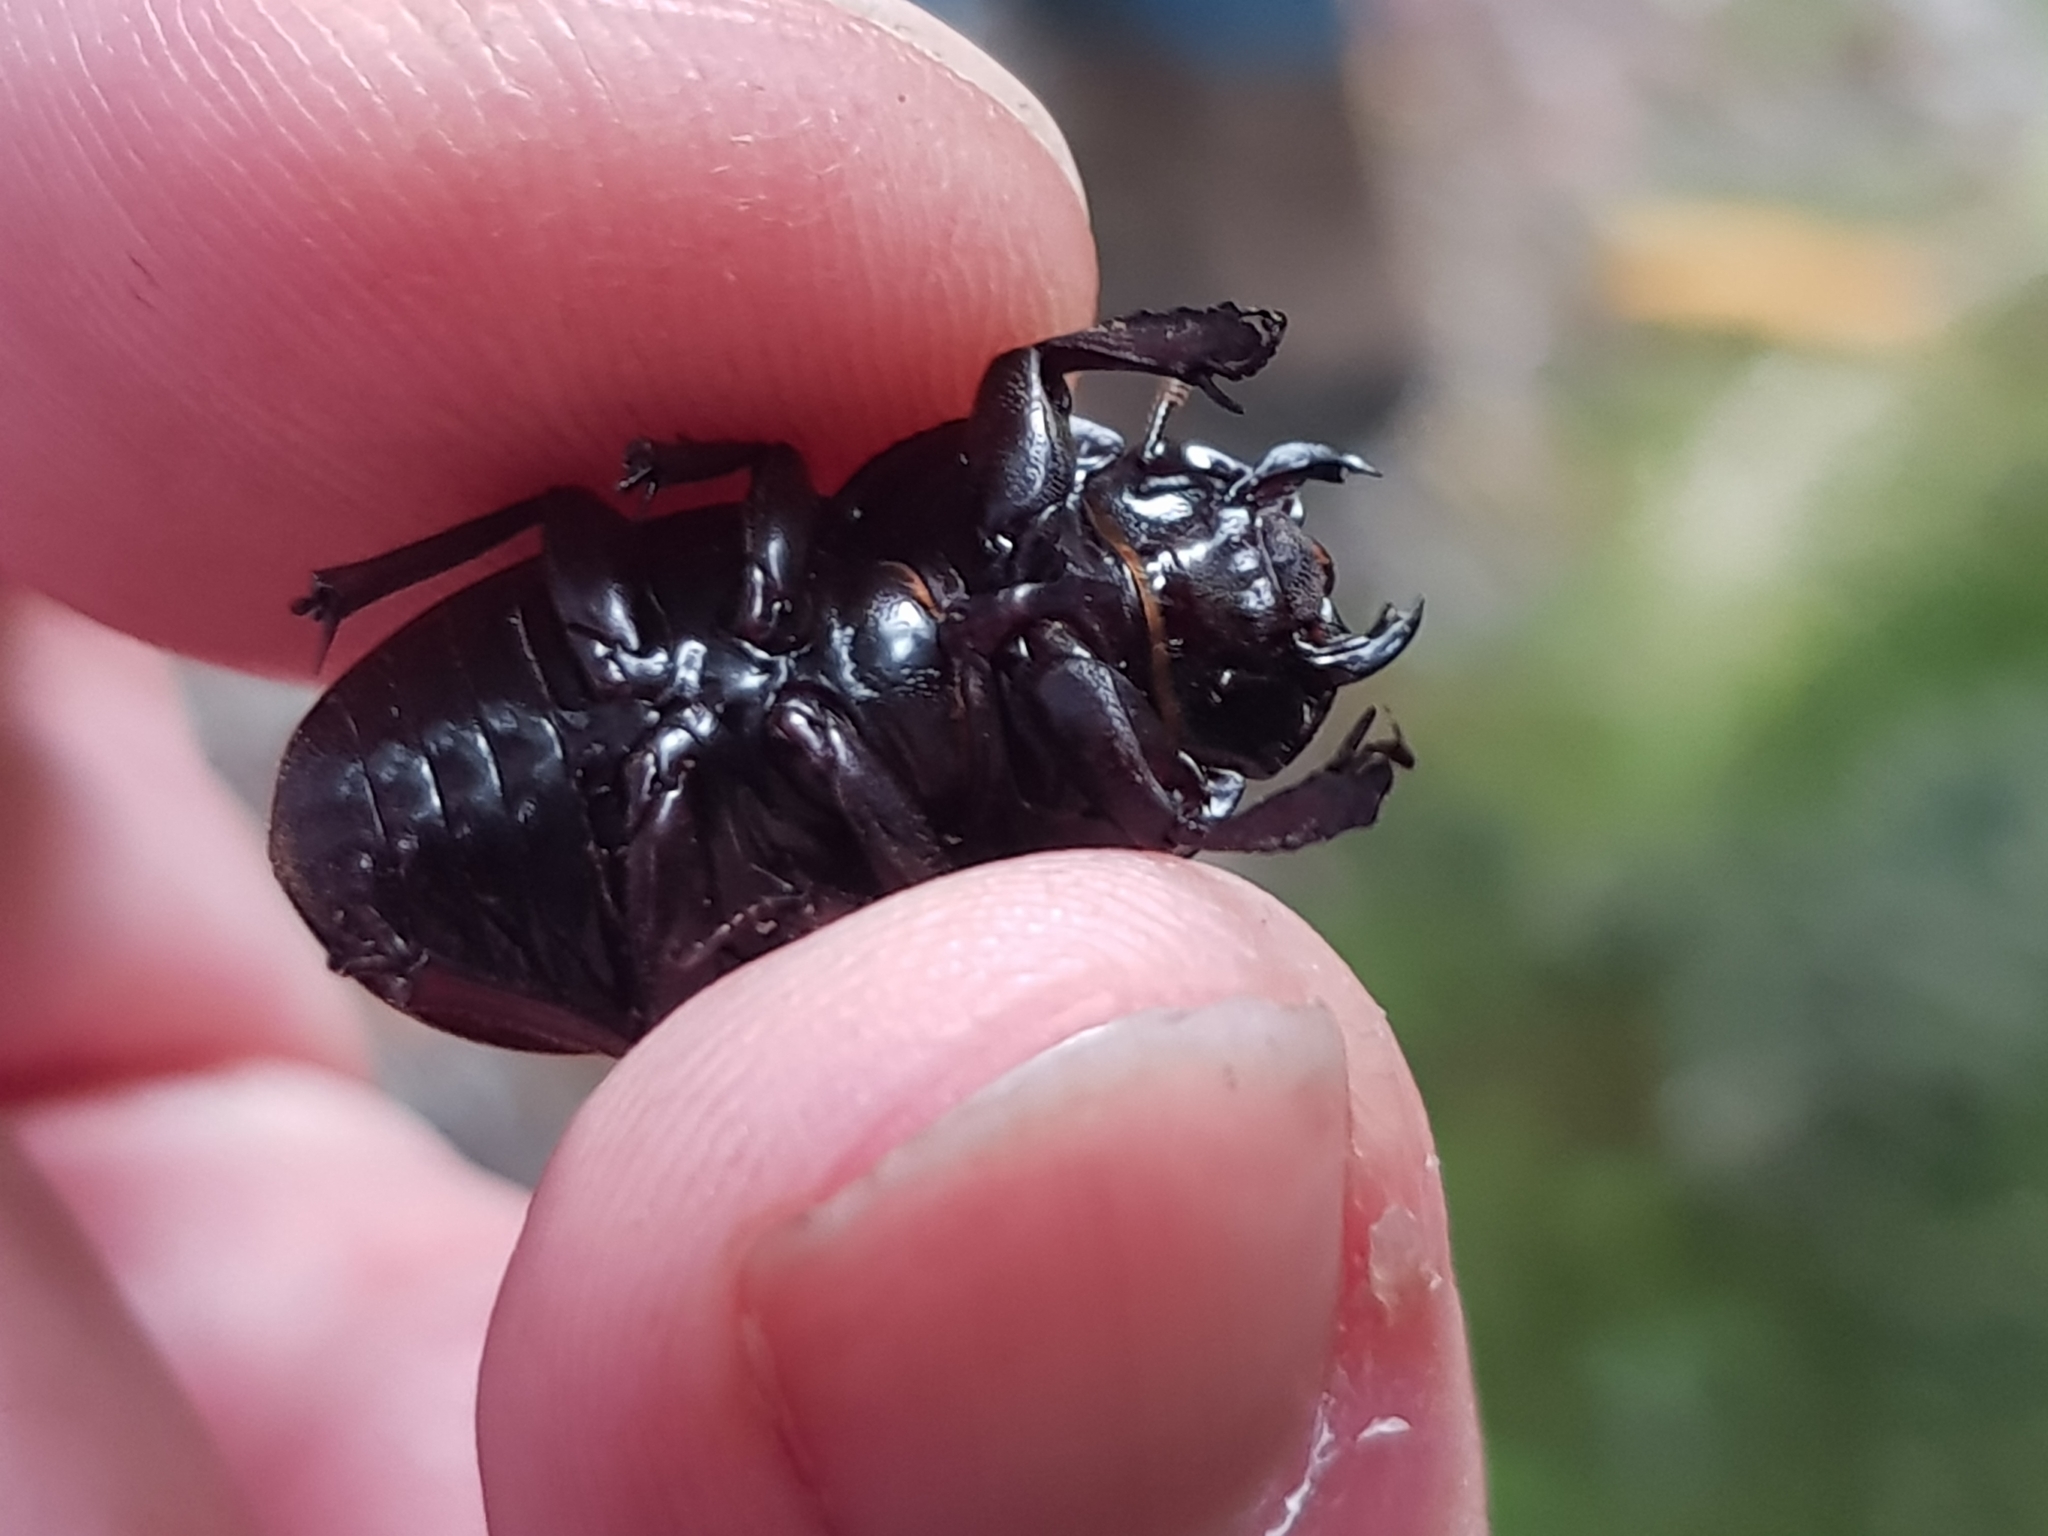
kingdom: Animalia
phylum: Arthropoda
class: Insecta
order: Coleoptera
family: Lucanidae
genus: Geodorcus
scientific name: Geodorcus helmsi
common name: Helm's stag beetle
